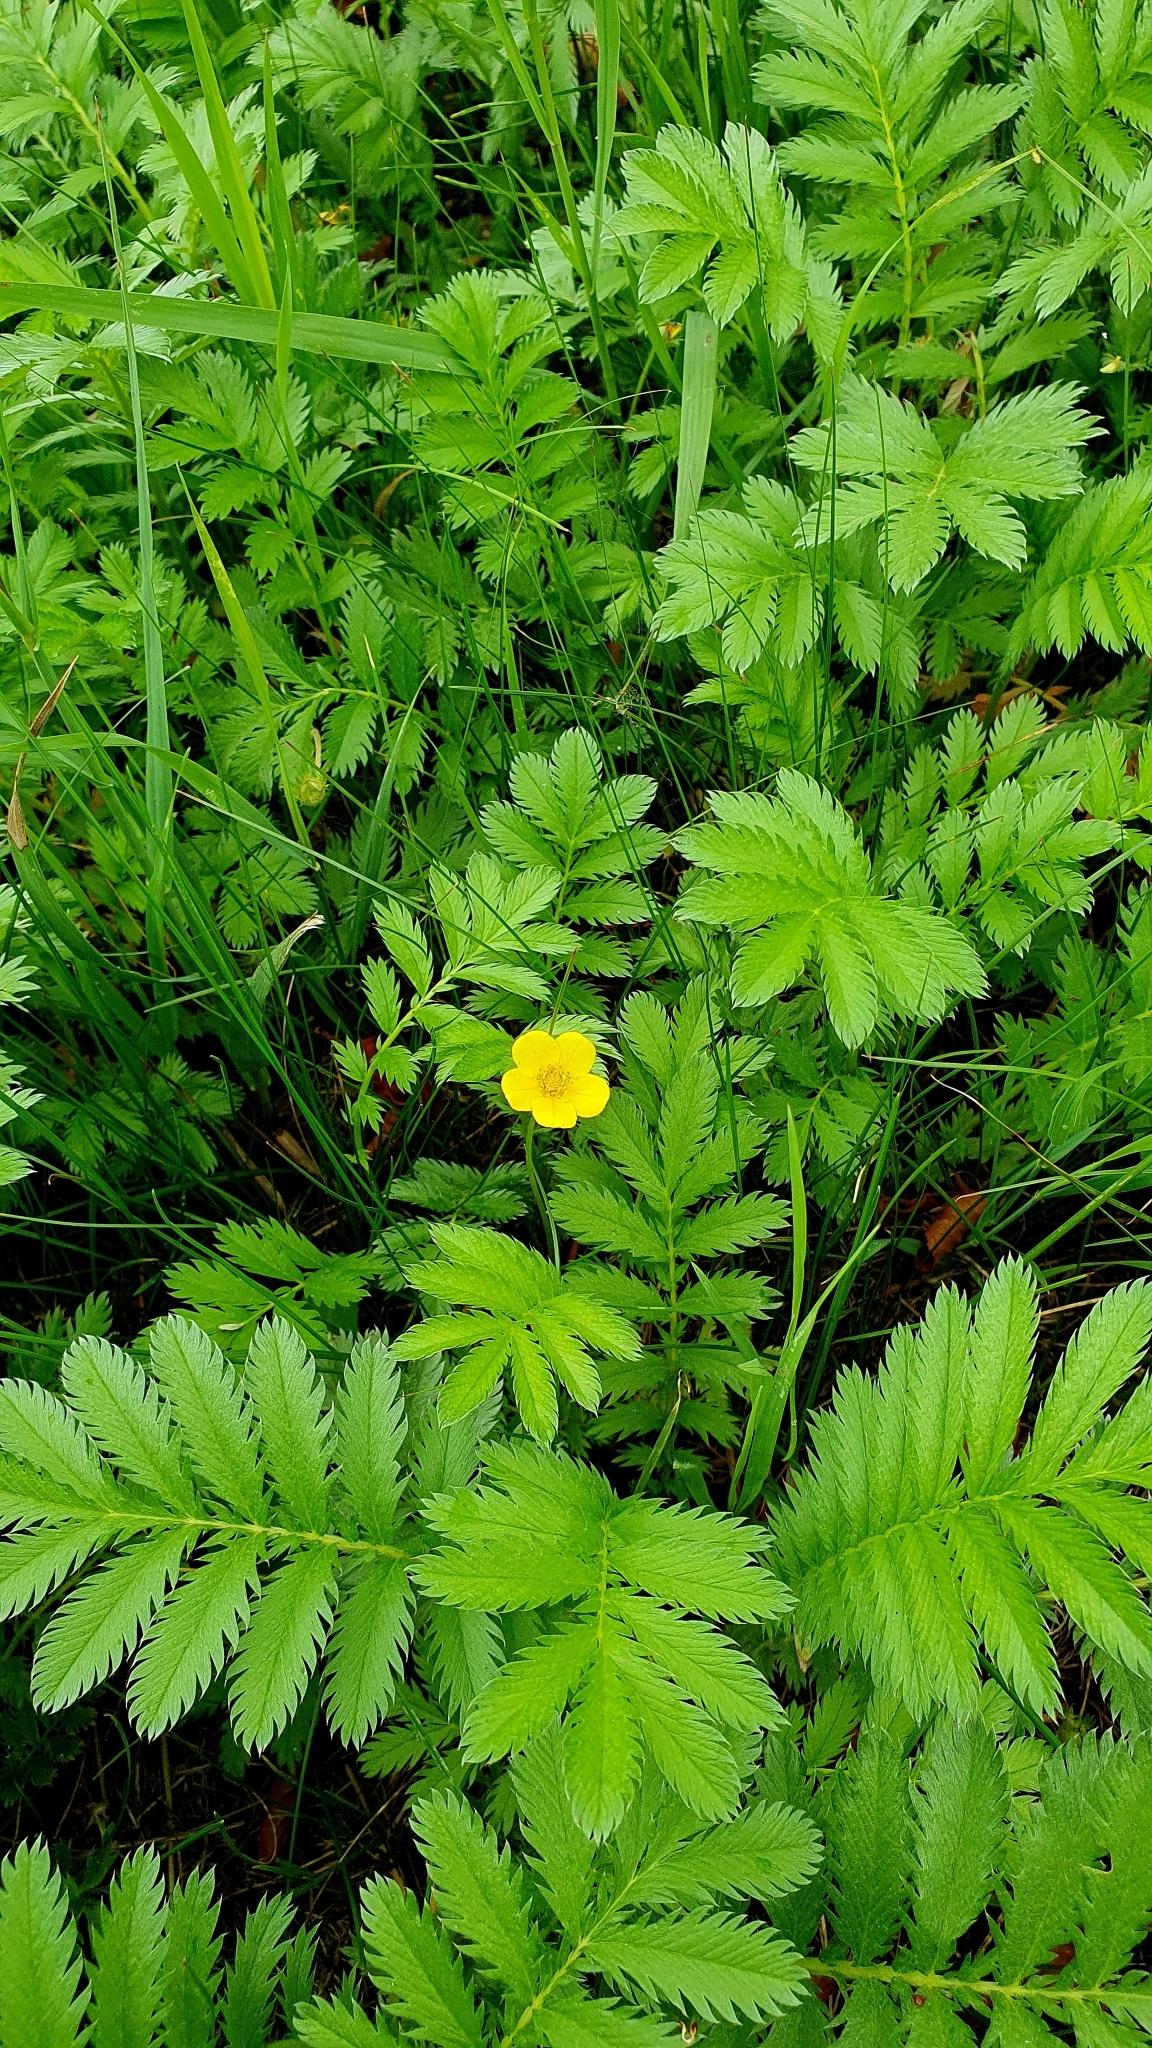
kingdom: Plantae
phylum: Tracheophyta
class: Magnoliopsida
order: Rosales
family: Rosaceae
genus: Argentina
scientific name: Argentina anserina
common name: Common silverweed
